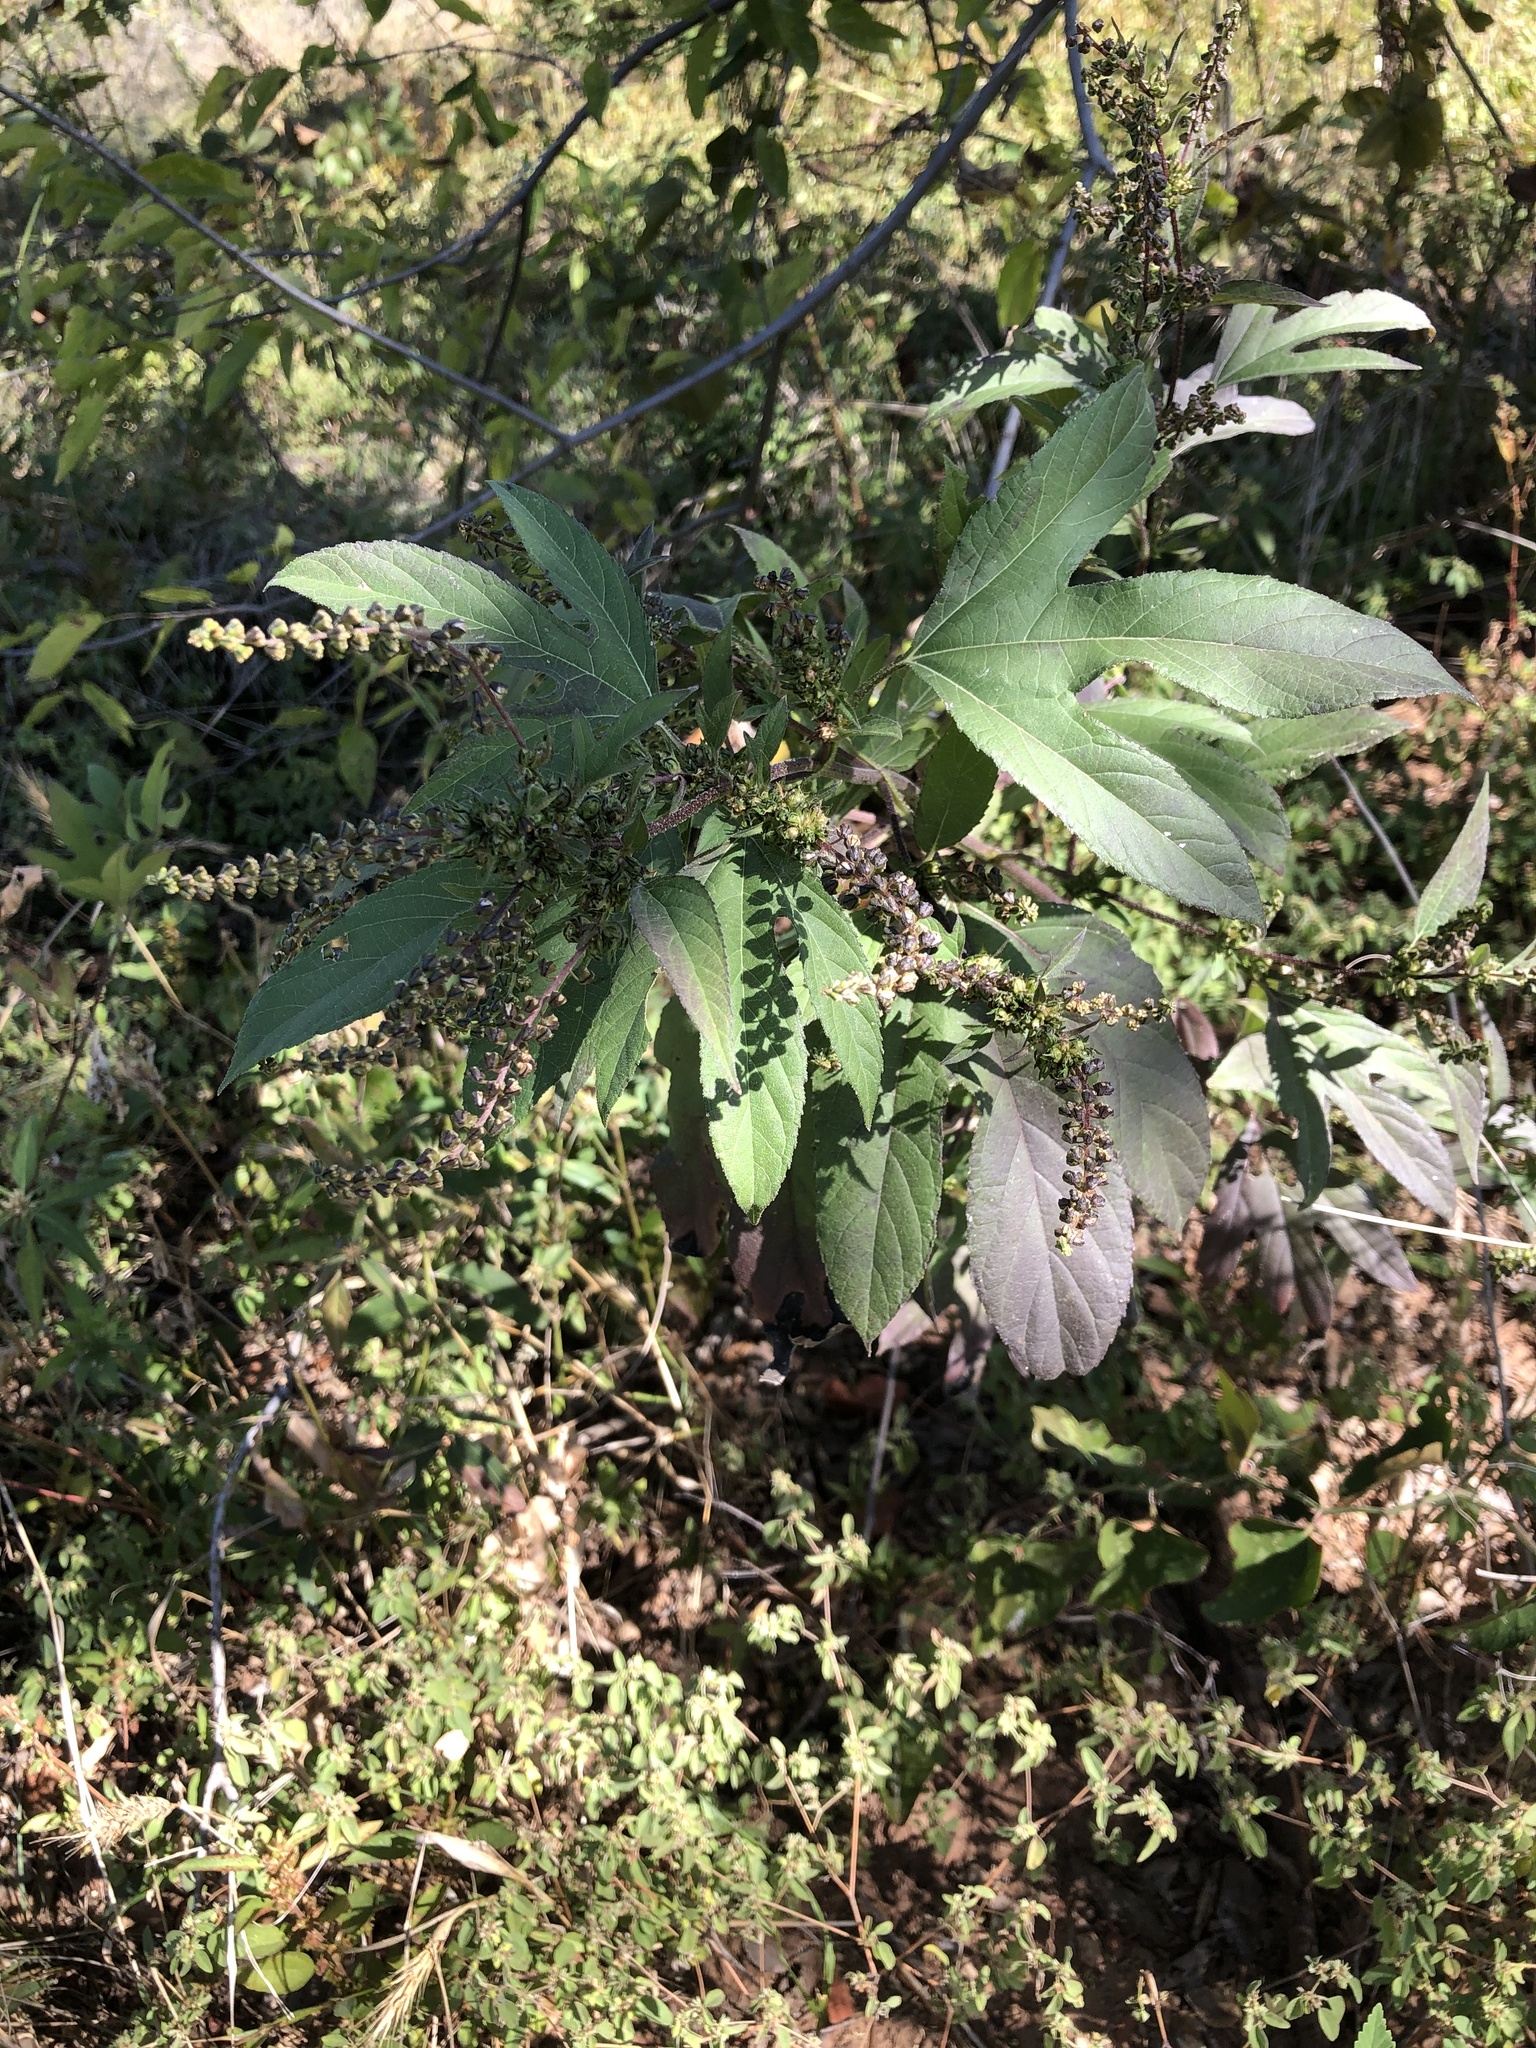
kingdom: Plantae
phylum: Tracheophyta
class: Magnoliopsida
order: Asterales
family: Asteraceae
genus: Ambrosia
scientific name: Ambrosia trifida
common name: Giant ragweed
